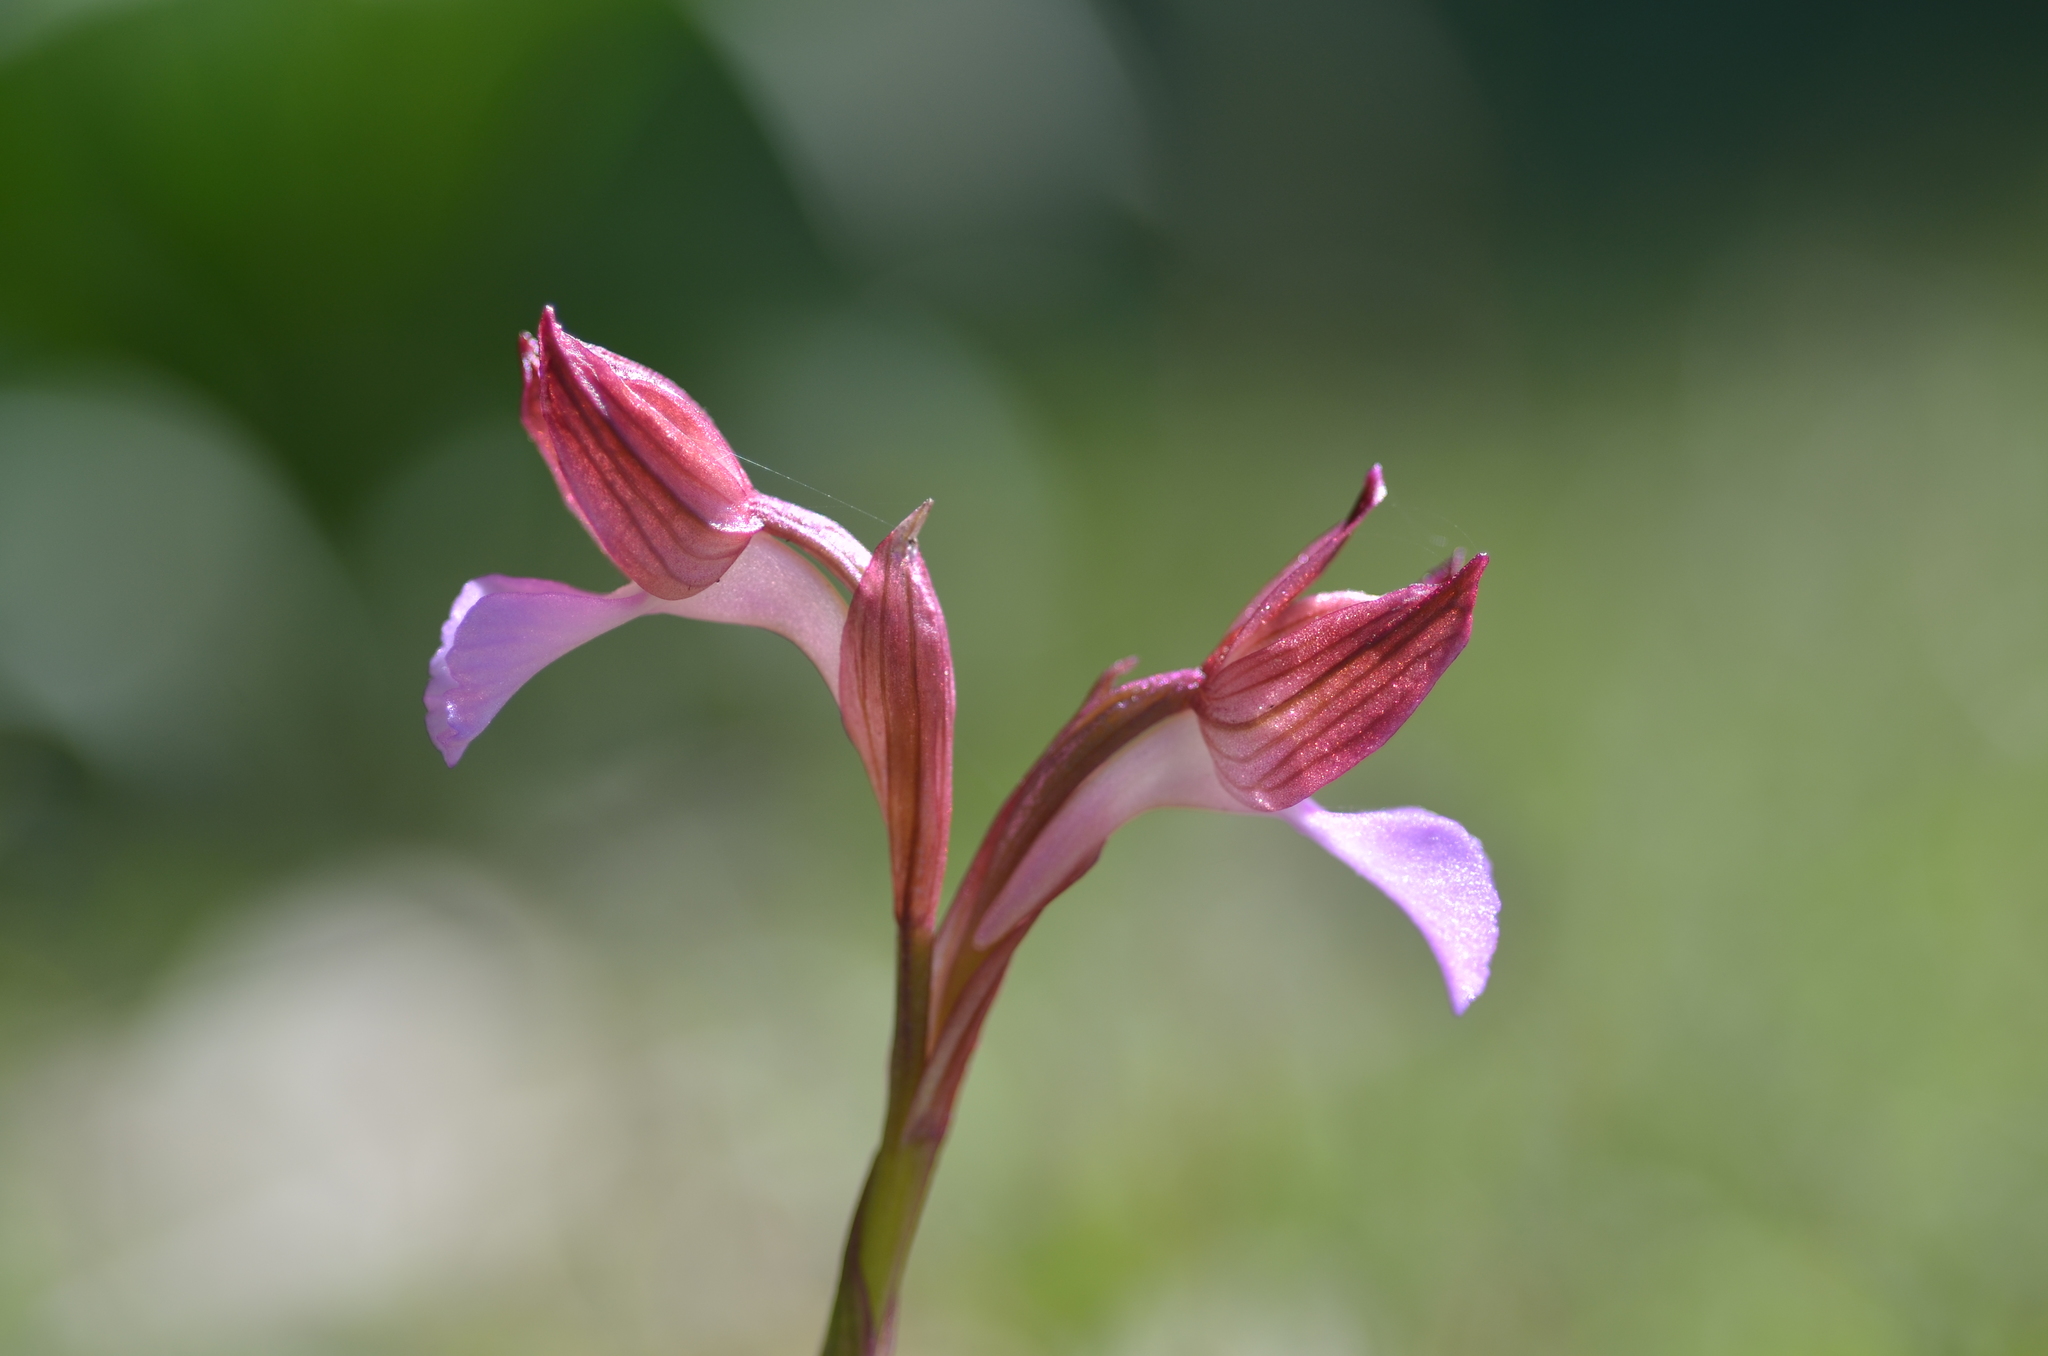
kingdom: Plantae
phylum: Tracheophyta
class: Liliopsida
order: Asparagales
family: Orchidaceae
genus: Anacamptis
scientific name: Anacamptis papilionacea
